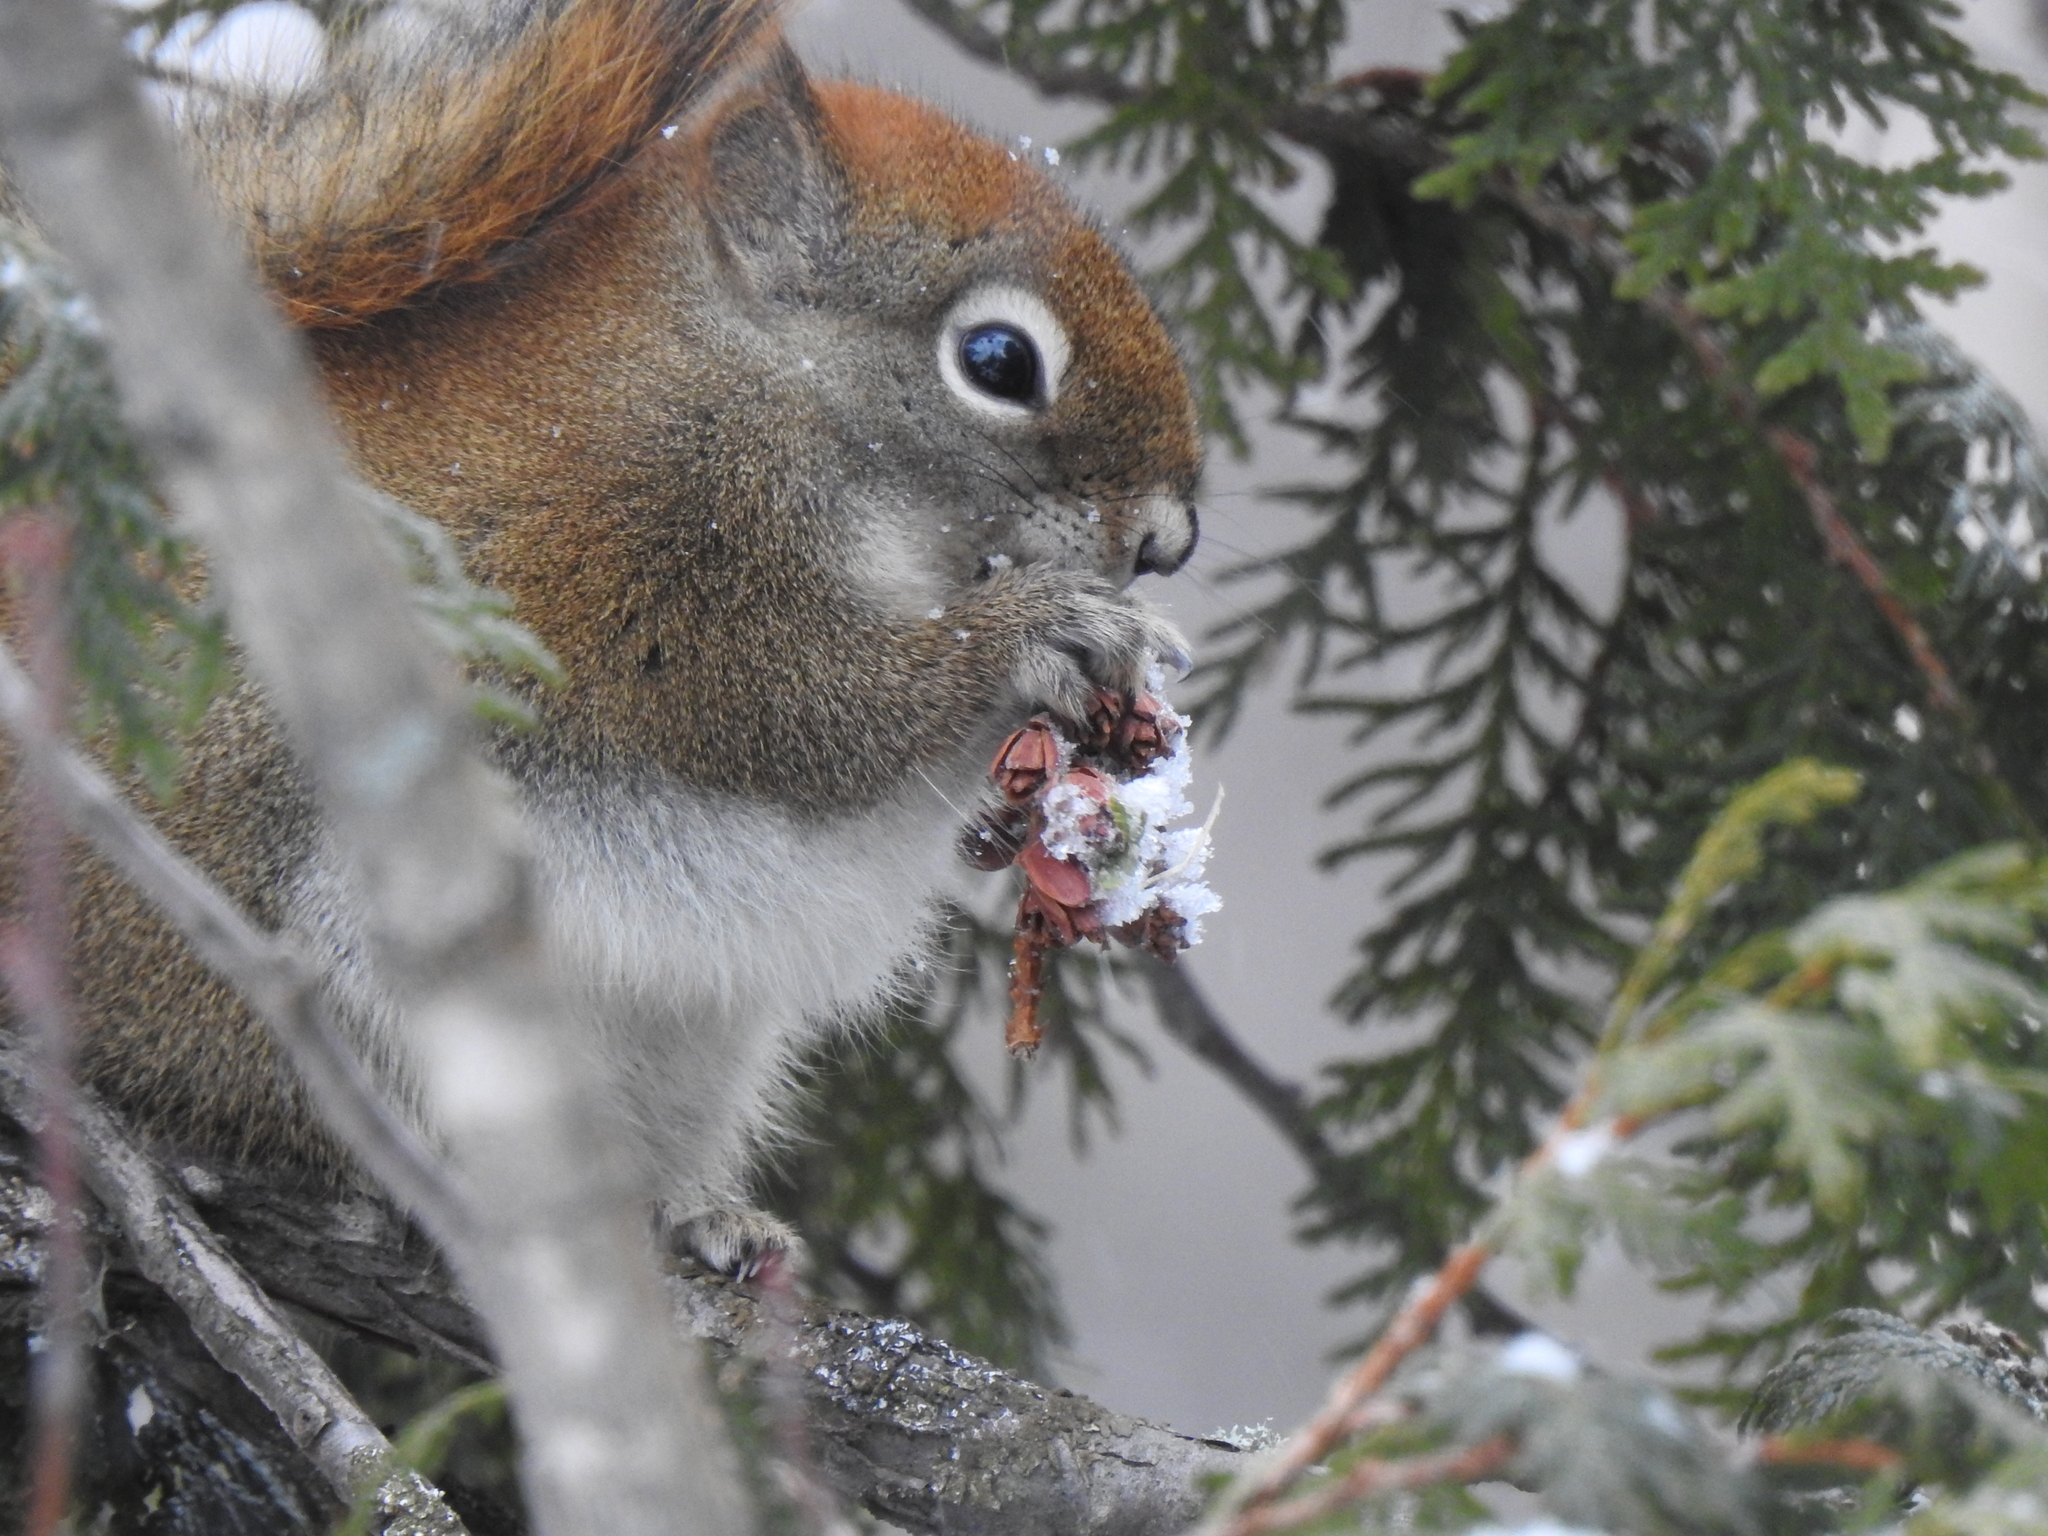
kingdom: Animalia
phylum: Chordata
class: Mammalia
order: Rodentia
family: Sciuridae
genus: Tamiasciurus
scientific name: Tamiasciurus hudsonicus
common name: Red squirrel
